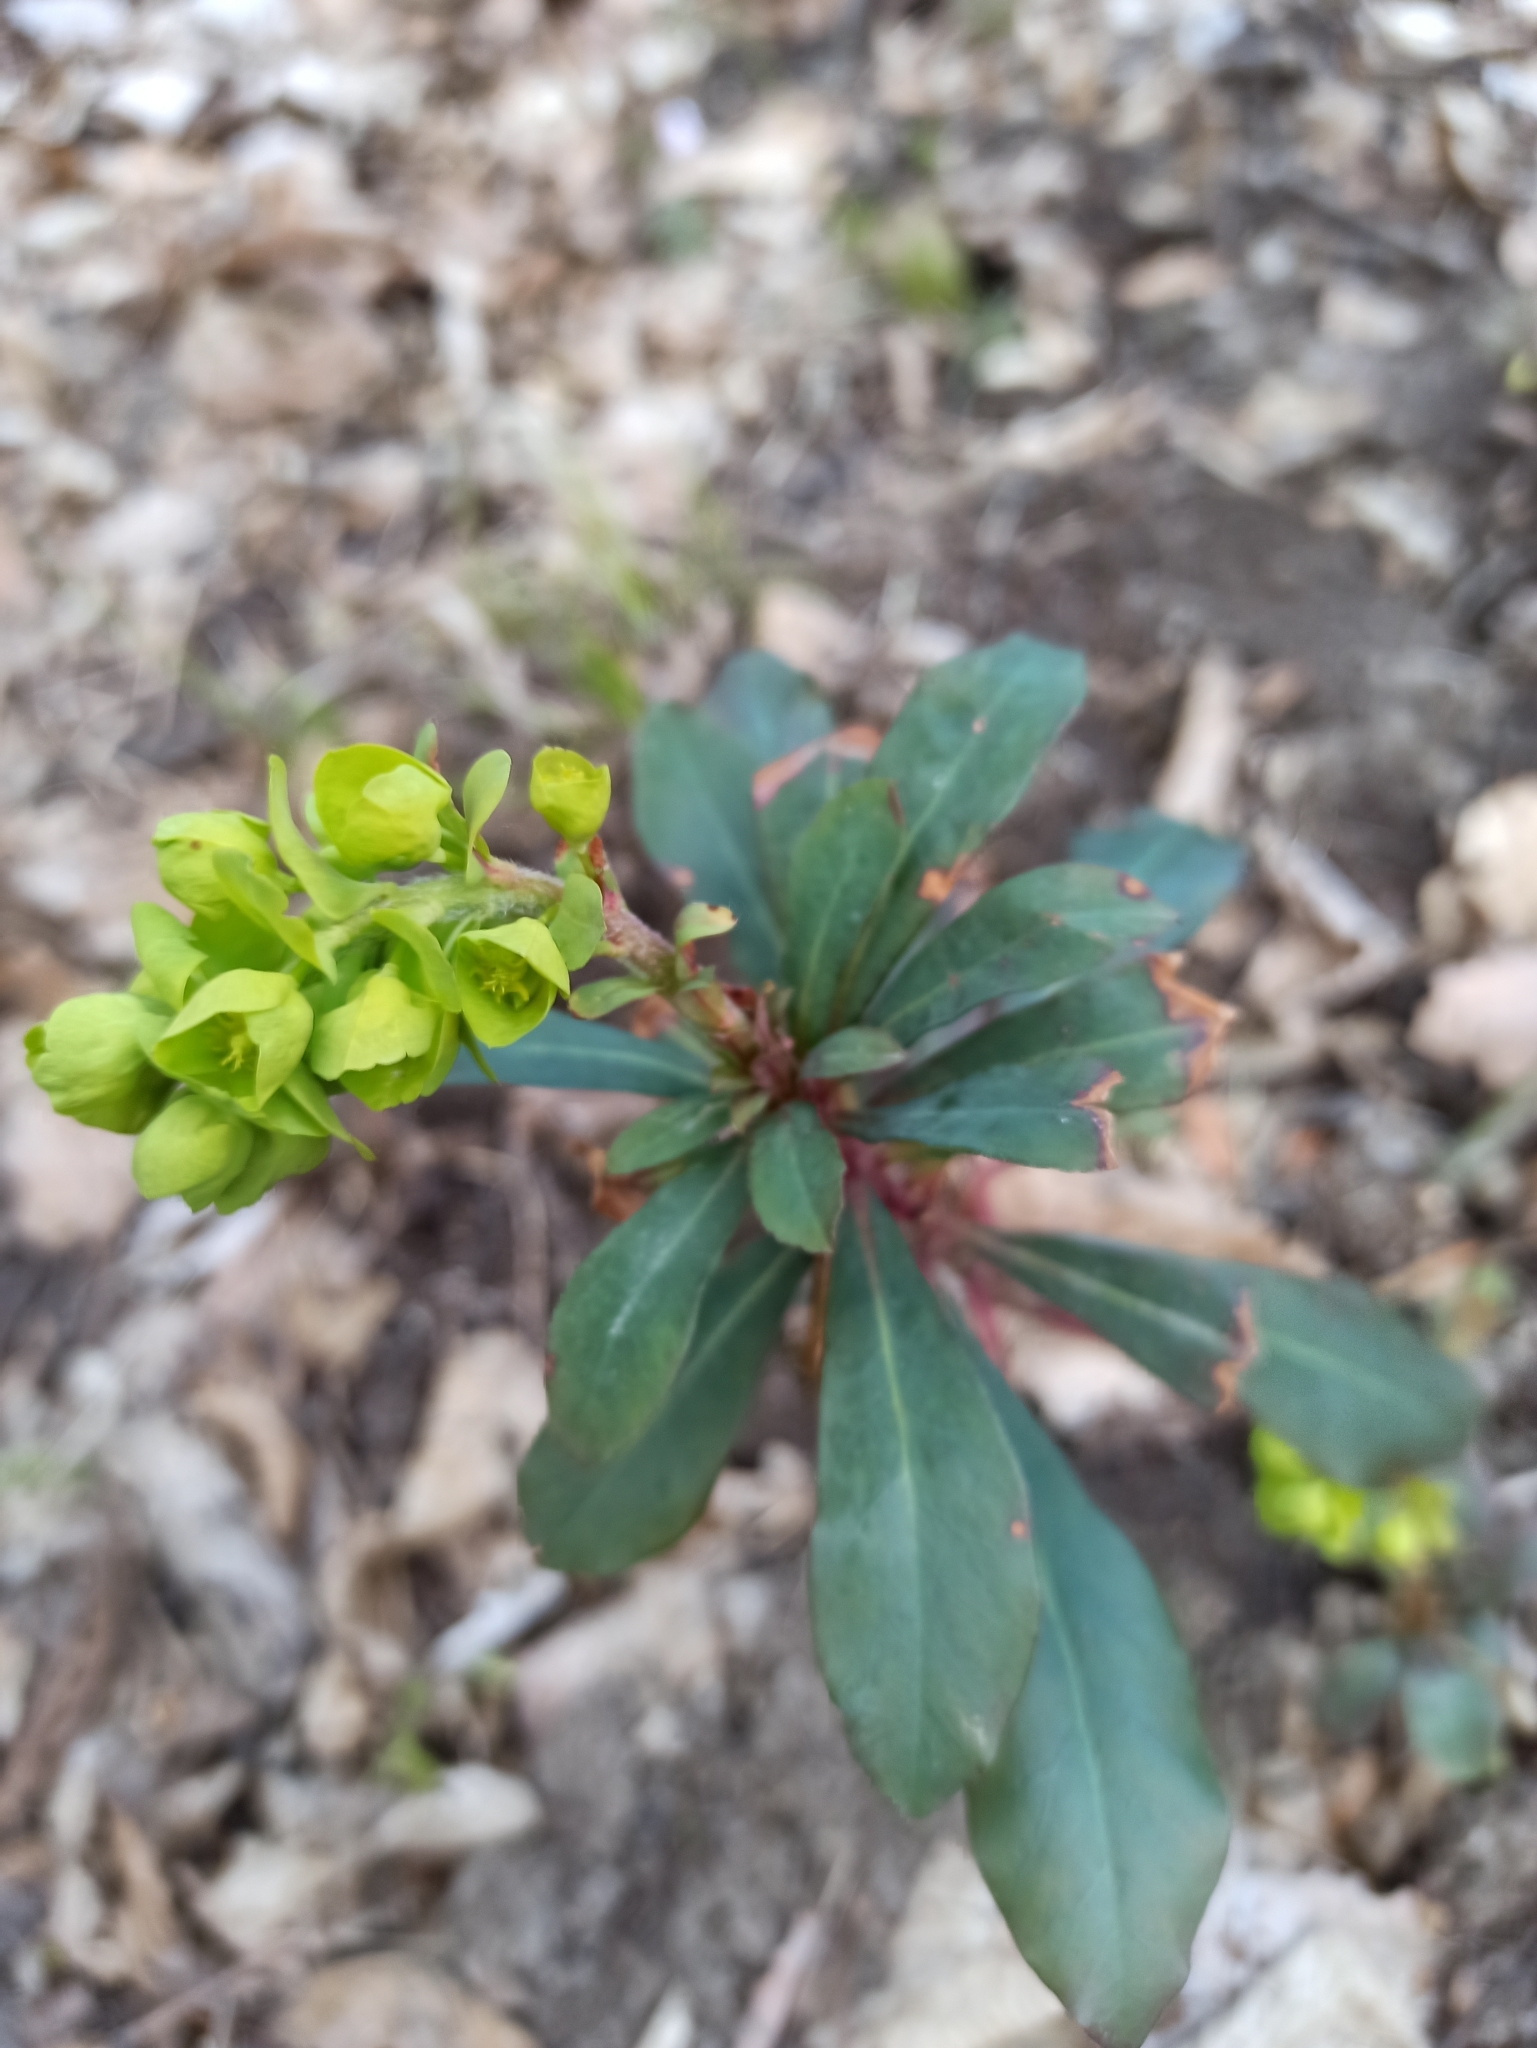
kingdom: Plantae
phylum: Tracheophyta
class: Magnoliopsida
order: Malpighiales
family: Euphorbiaceae
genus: Euphorbia
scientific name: Euphorbia amygdaloides
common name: Wood spurge
